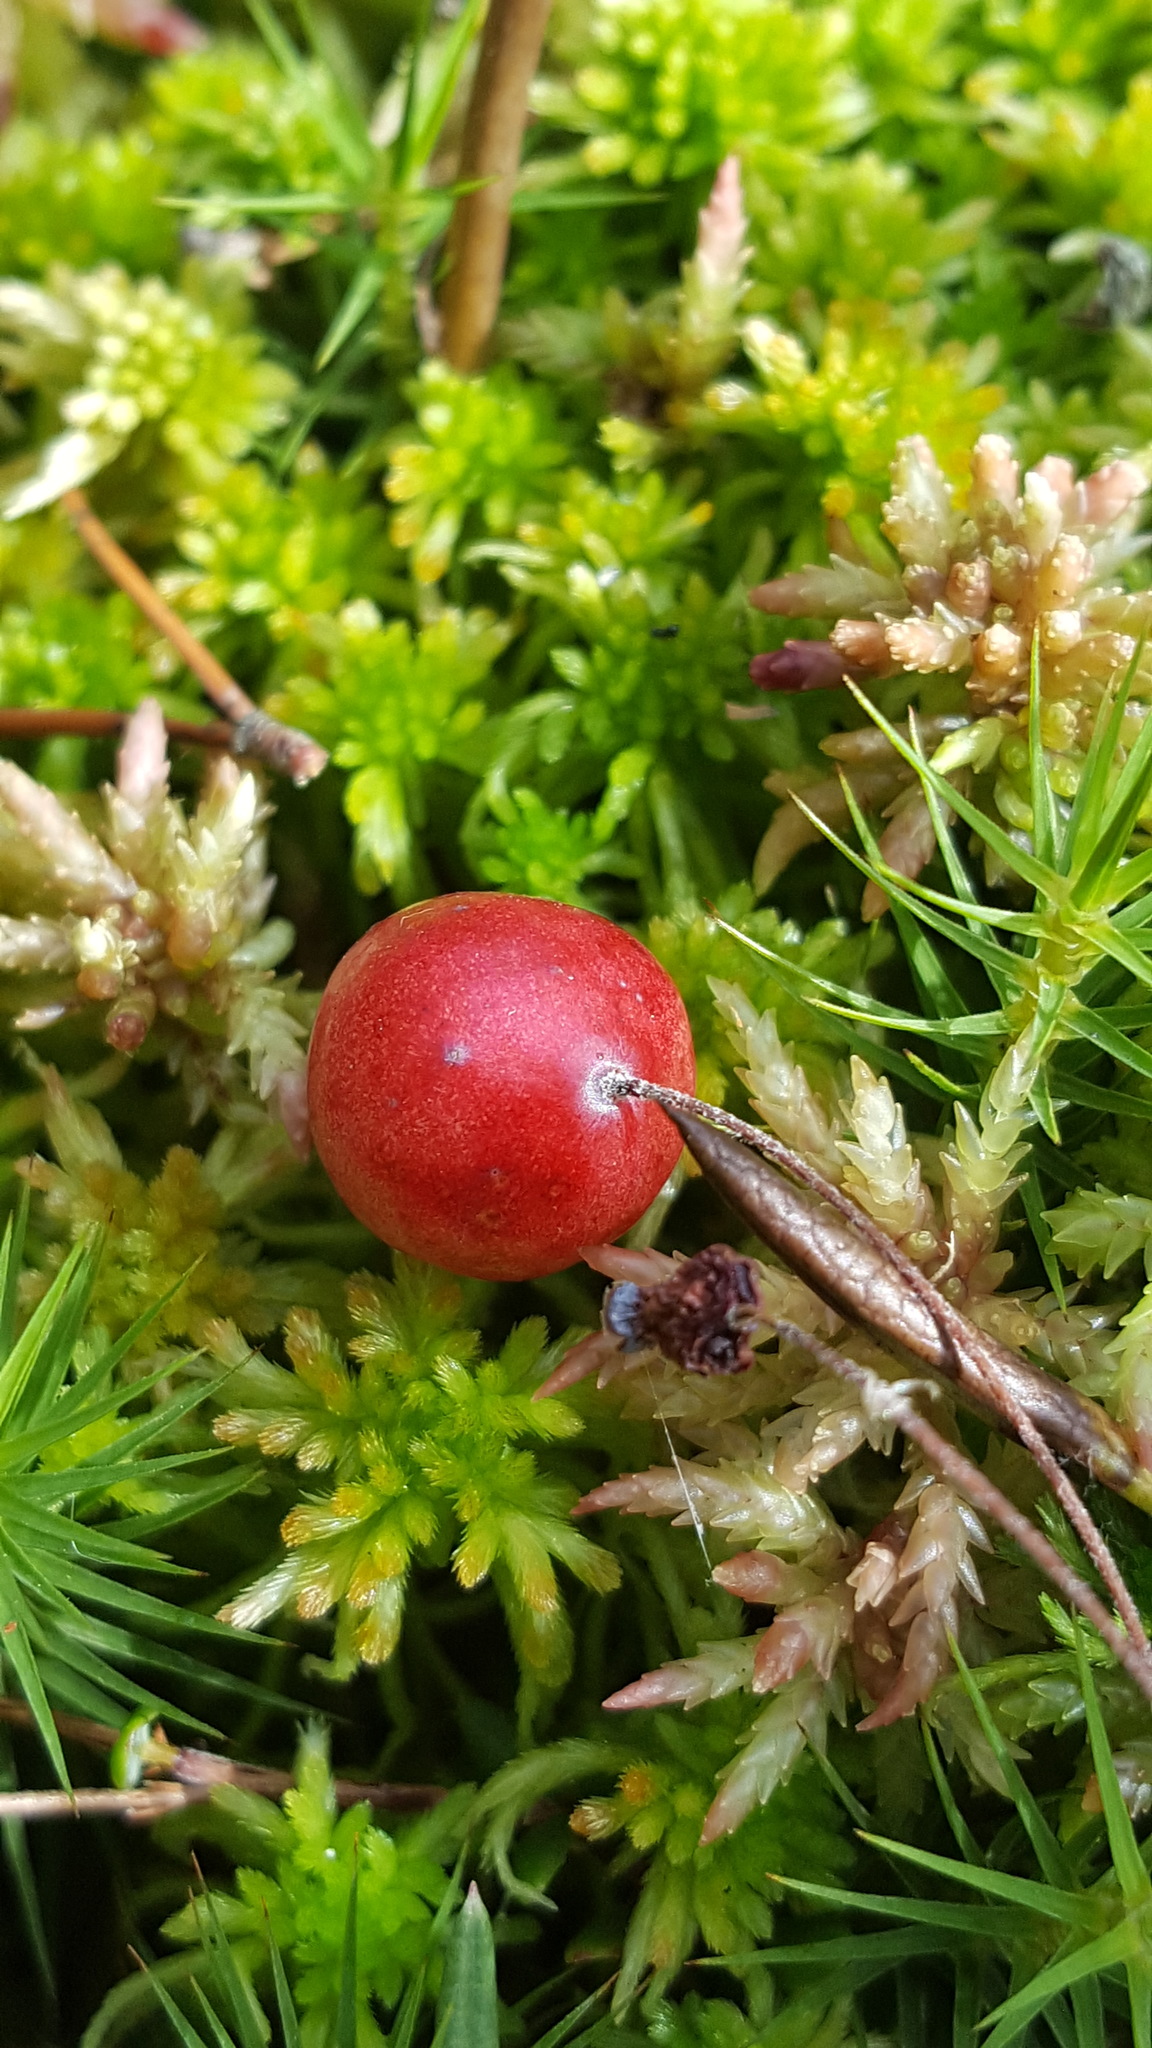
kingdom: Plantae
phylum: Tracheophyta
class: Magnoliopsida
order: Ericales
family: Ericaceae
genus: Vaccinium
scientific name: Vaccinium oxycoccos
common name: Cranberry
